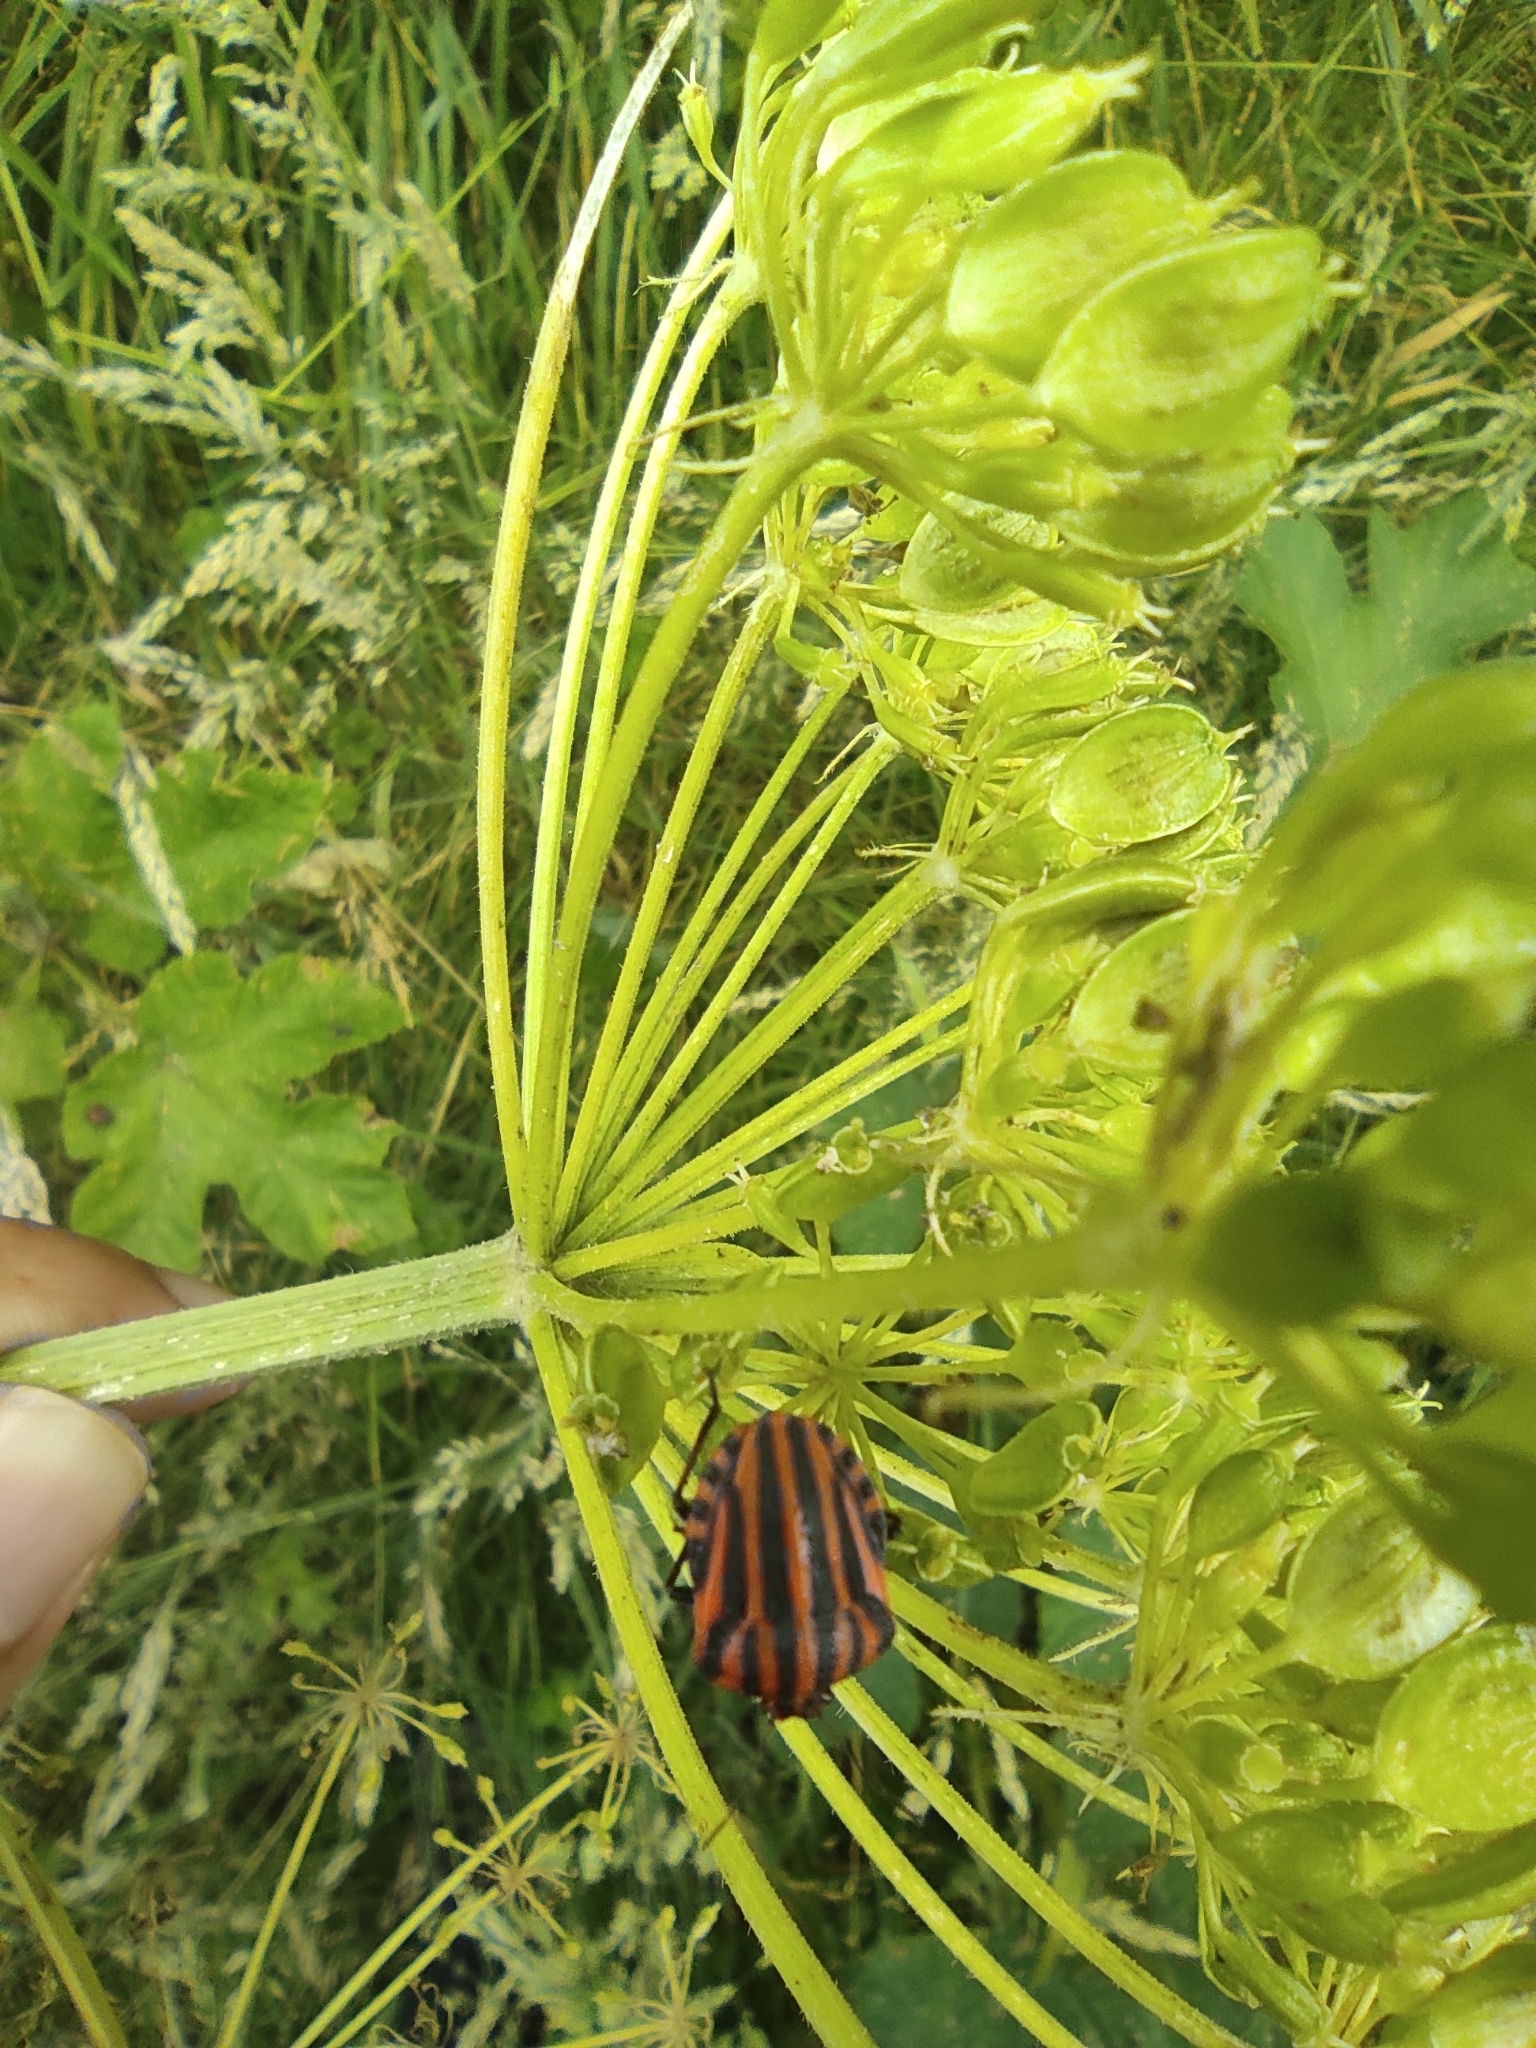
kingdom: Animalia
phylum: Arthropoda
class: Insecta
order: Hemiptera
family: Pentatomidae
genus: Graphosoma
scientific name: Graphosoma italicum
